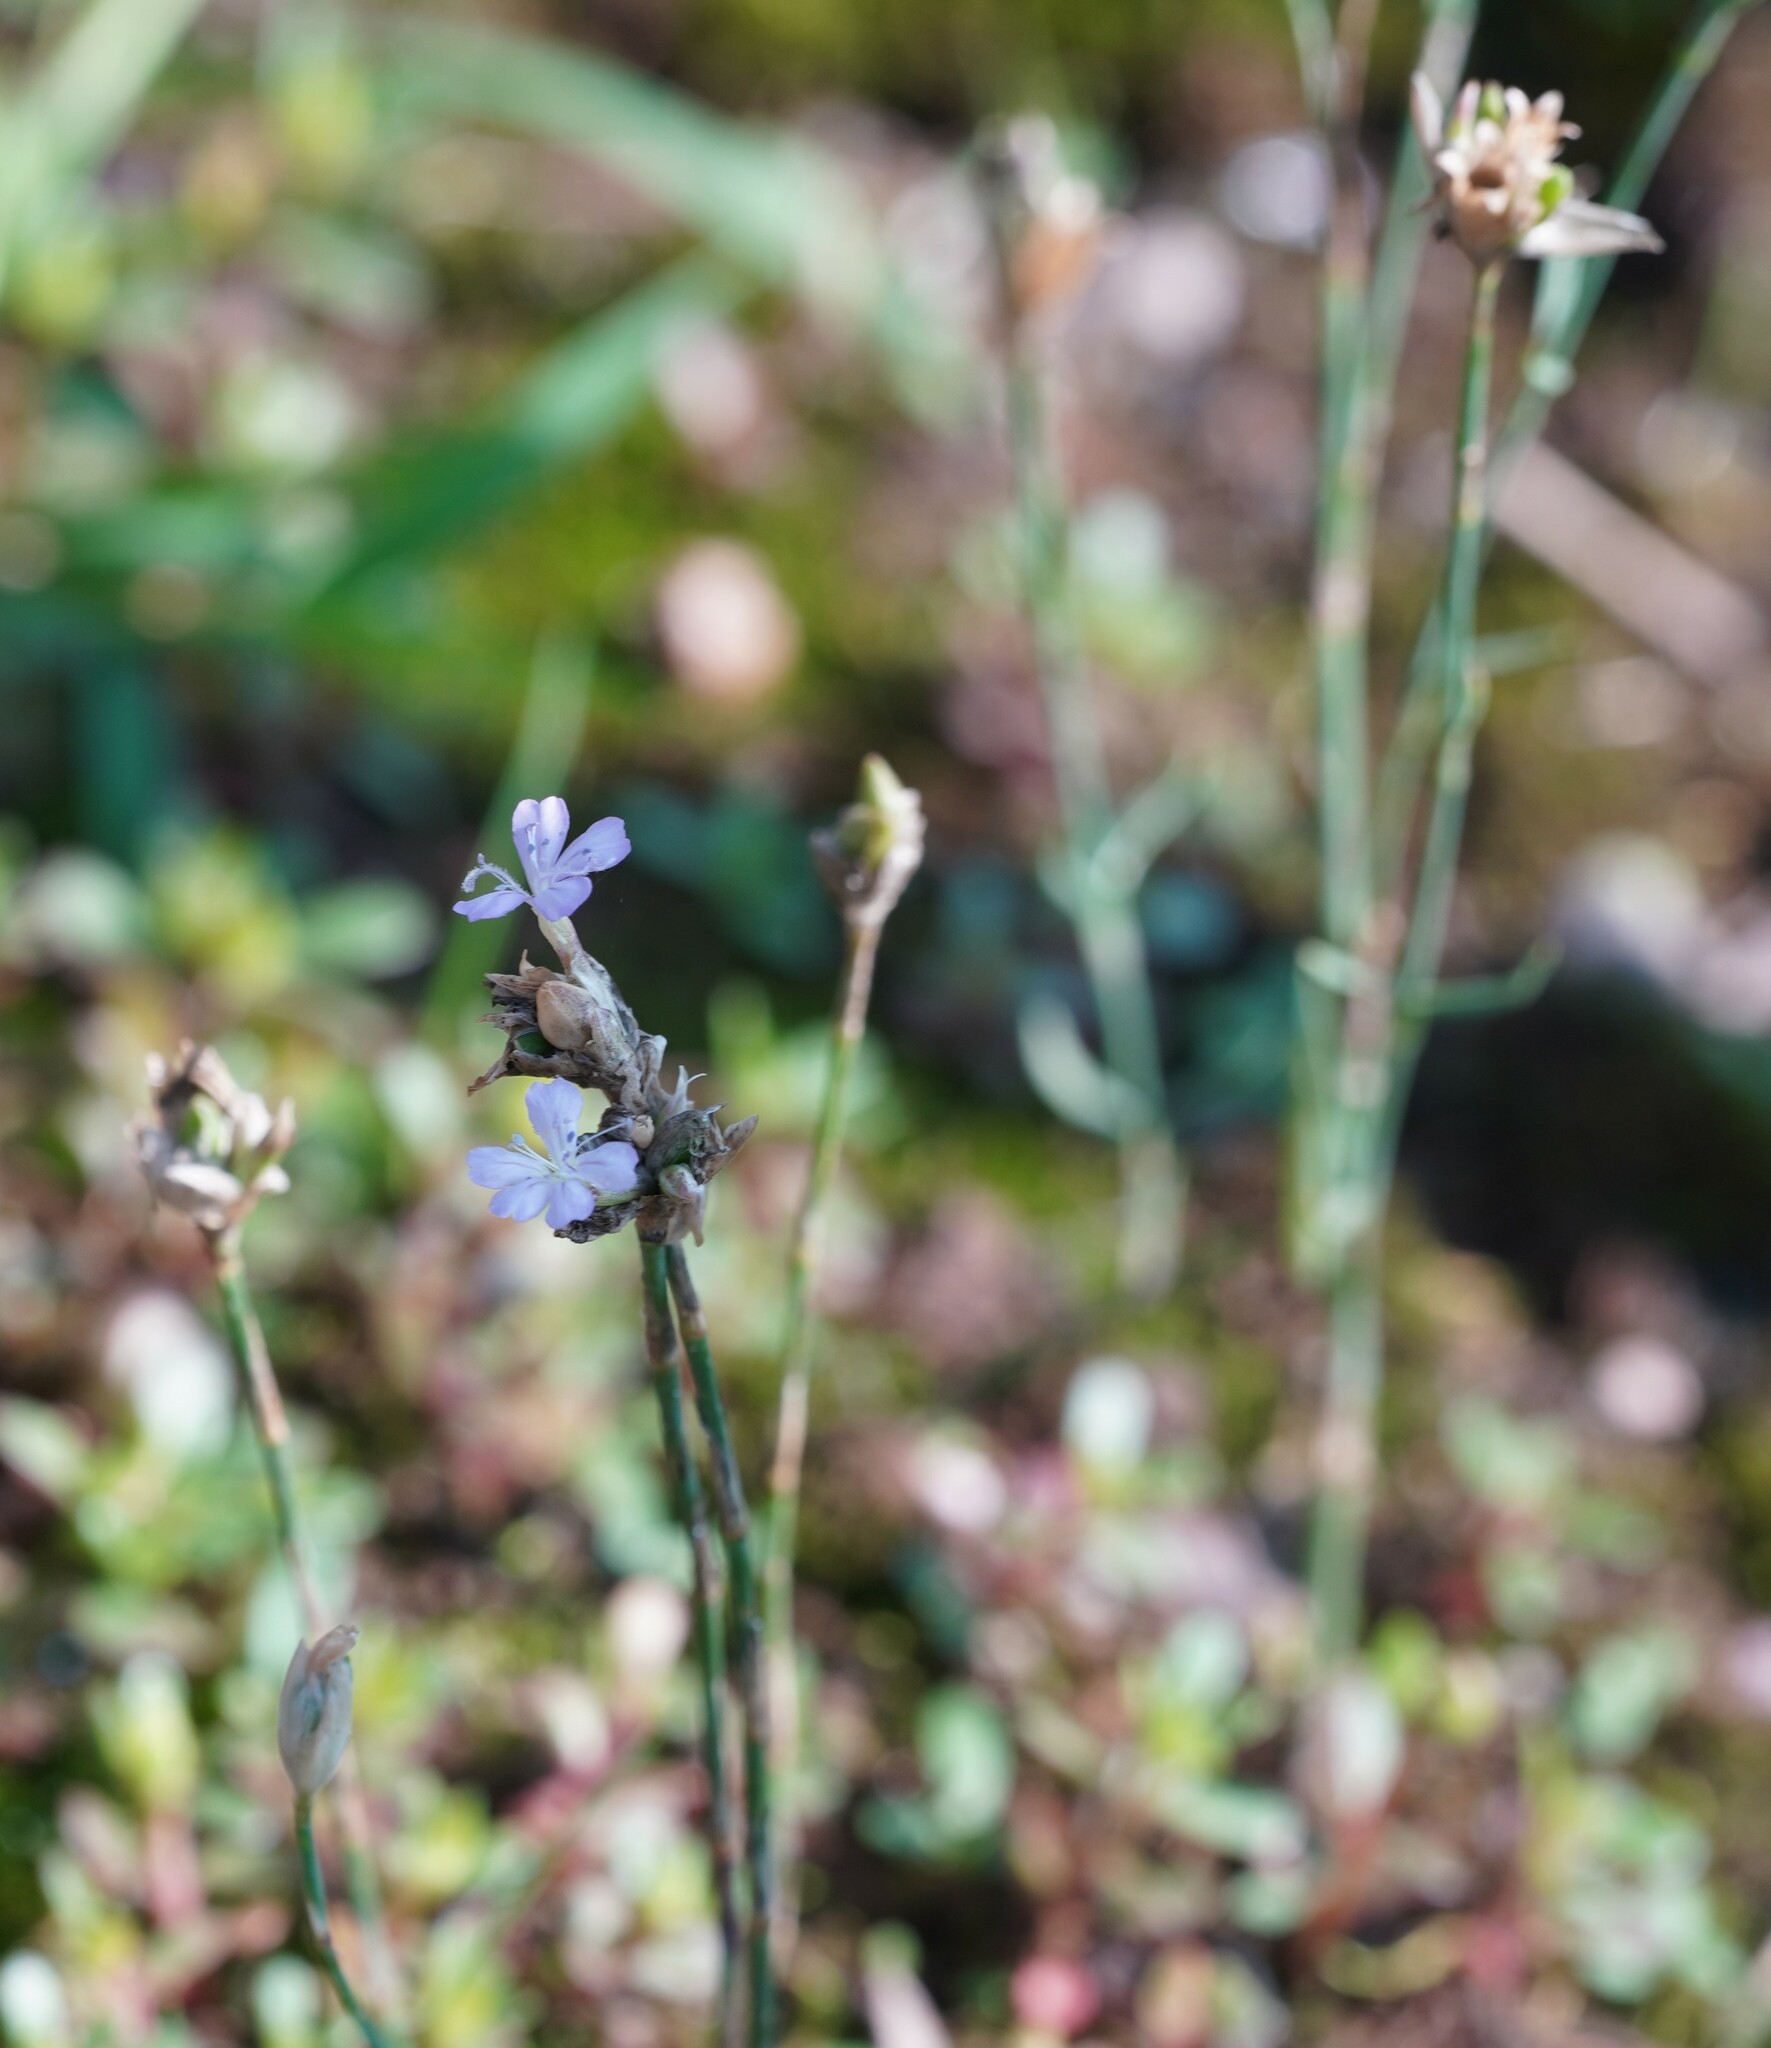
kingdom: Plantae
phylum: Tracheophyta
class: Magnoliopsida
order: Caryophyllales
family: Caryophyllaceae
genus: Petrorhagia
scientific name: Petrorhagia prolifera
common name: Proliferous pink
